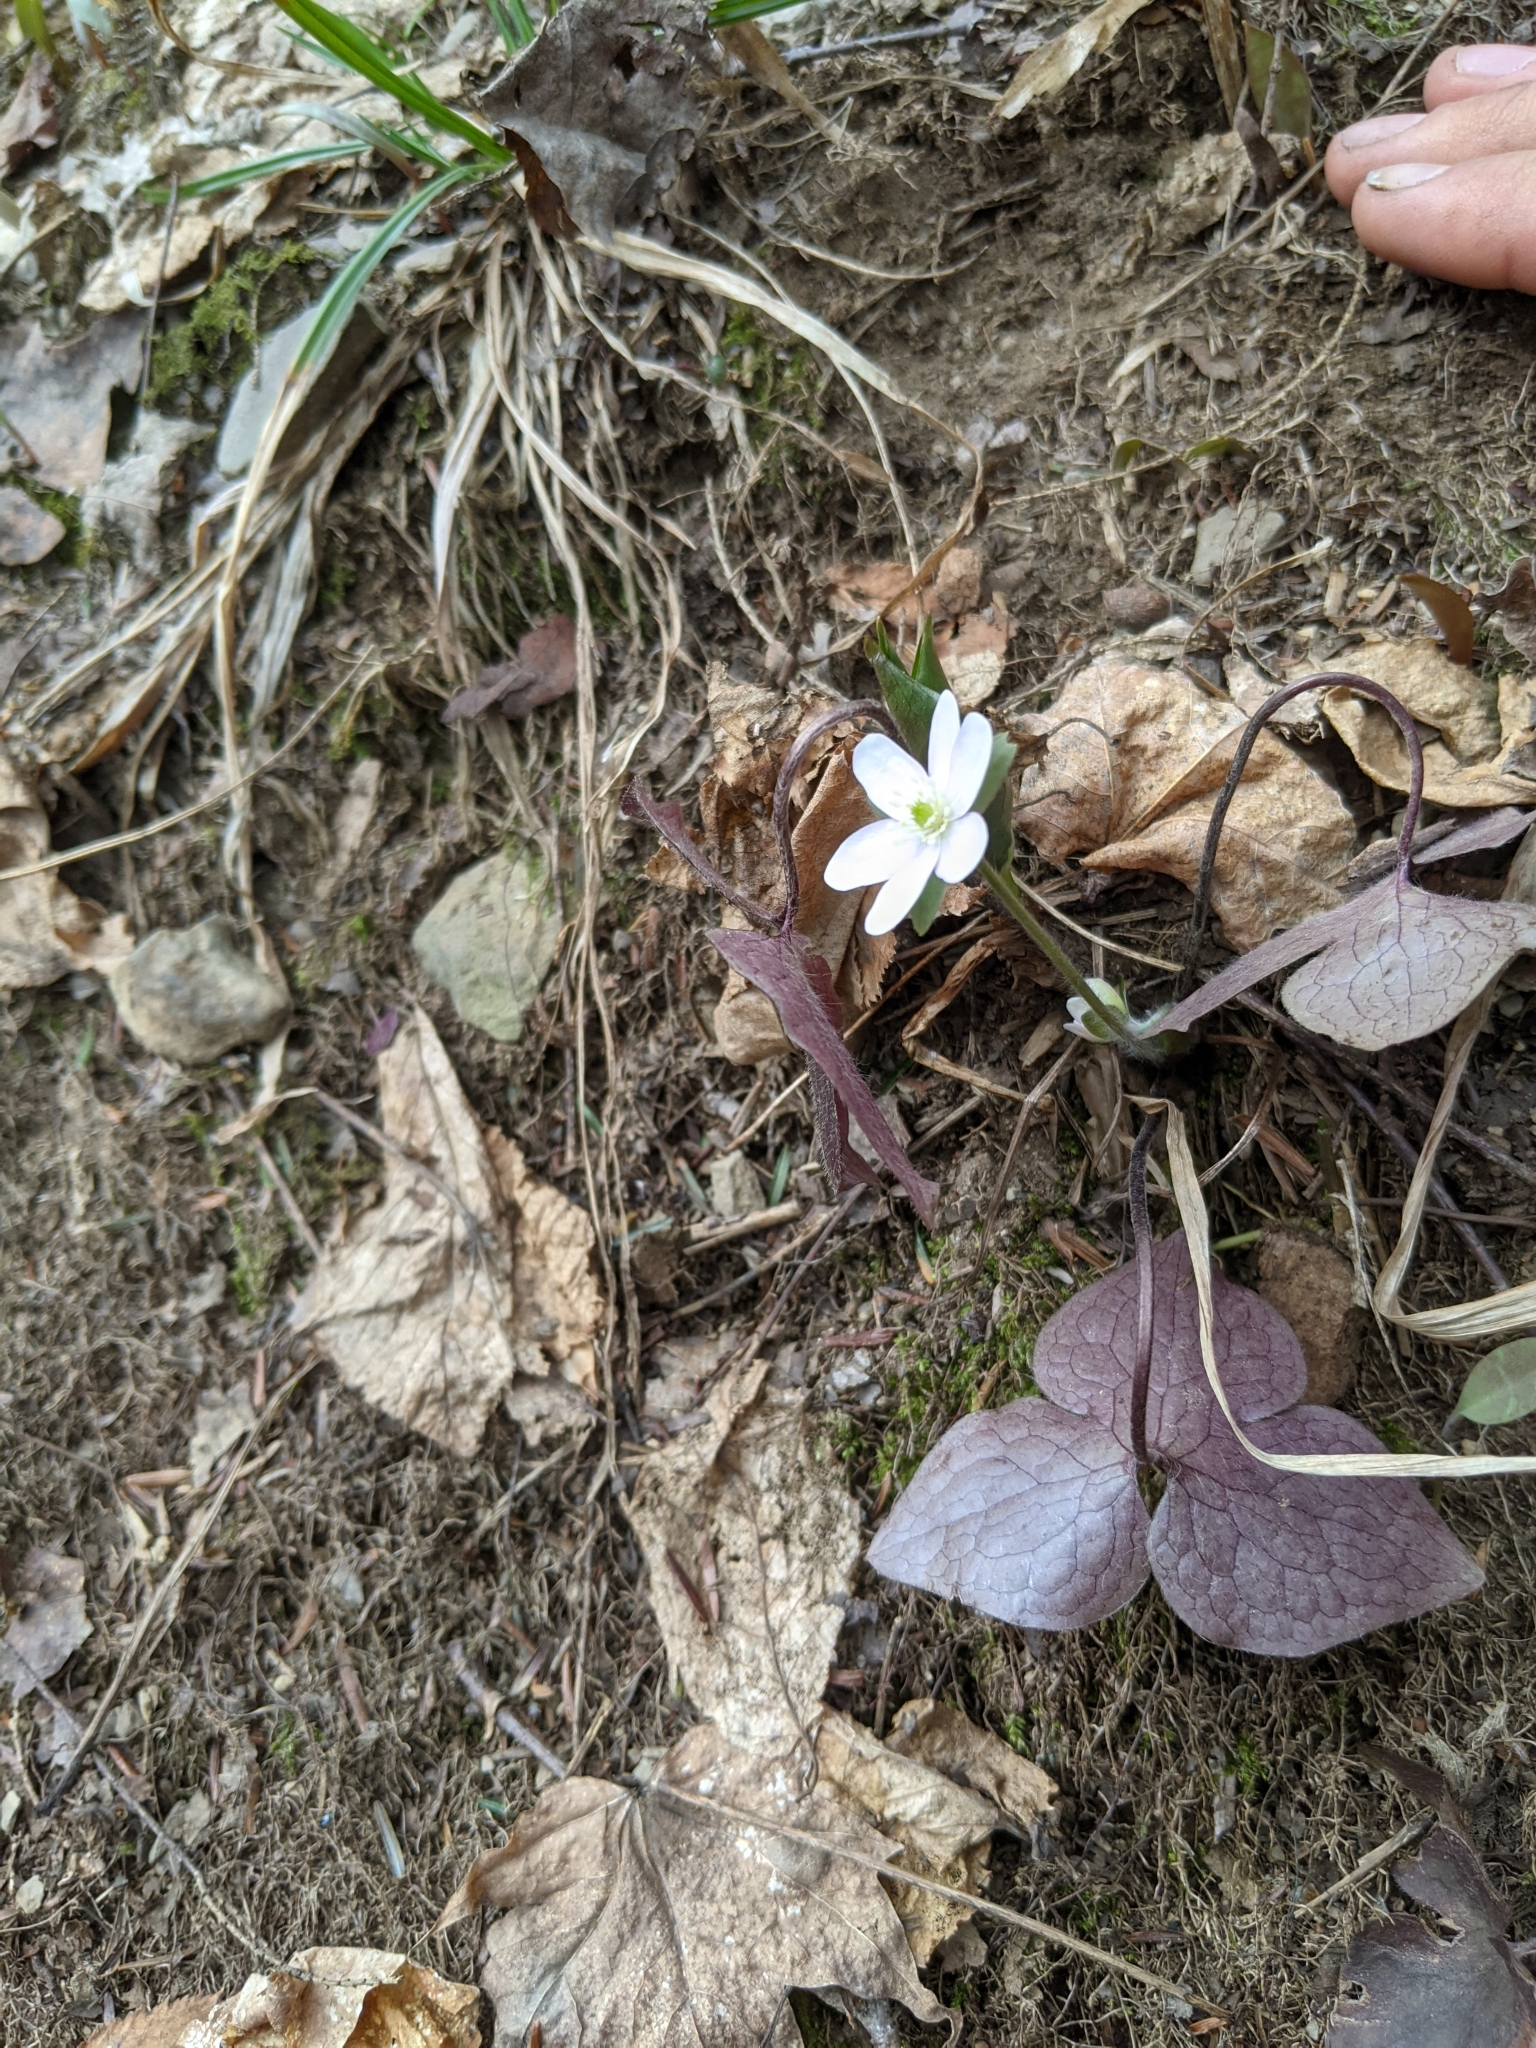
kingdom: Plantae
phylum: Tracheophyta
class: Magnoliopsida
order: Ranunculales
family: Ranunculaceae
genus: Hepatica
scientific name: Hepatica acutiloba
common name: Sharp-lobed hepatica
